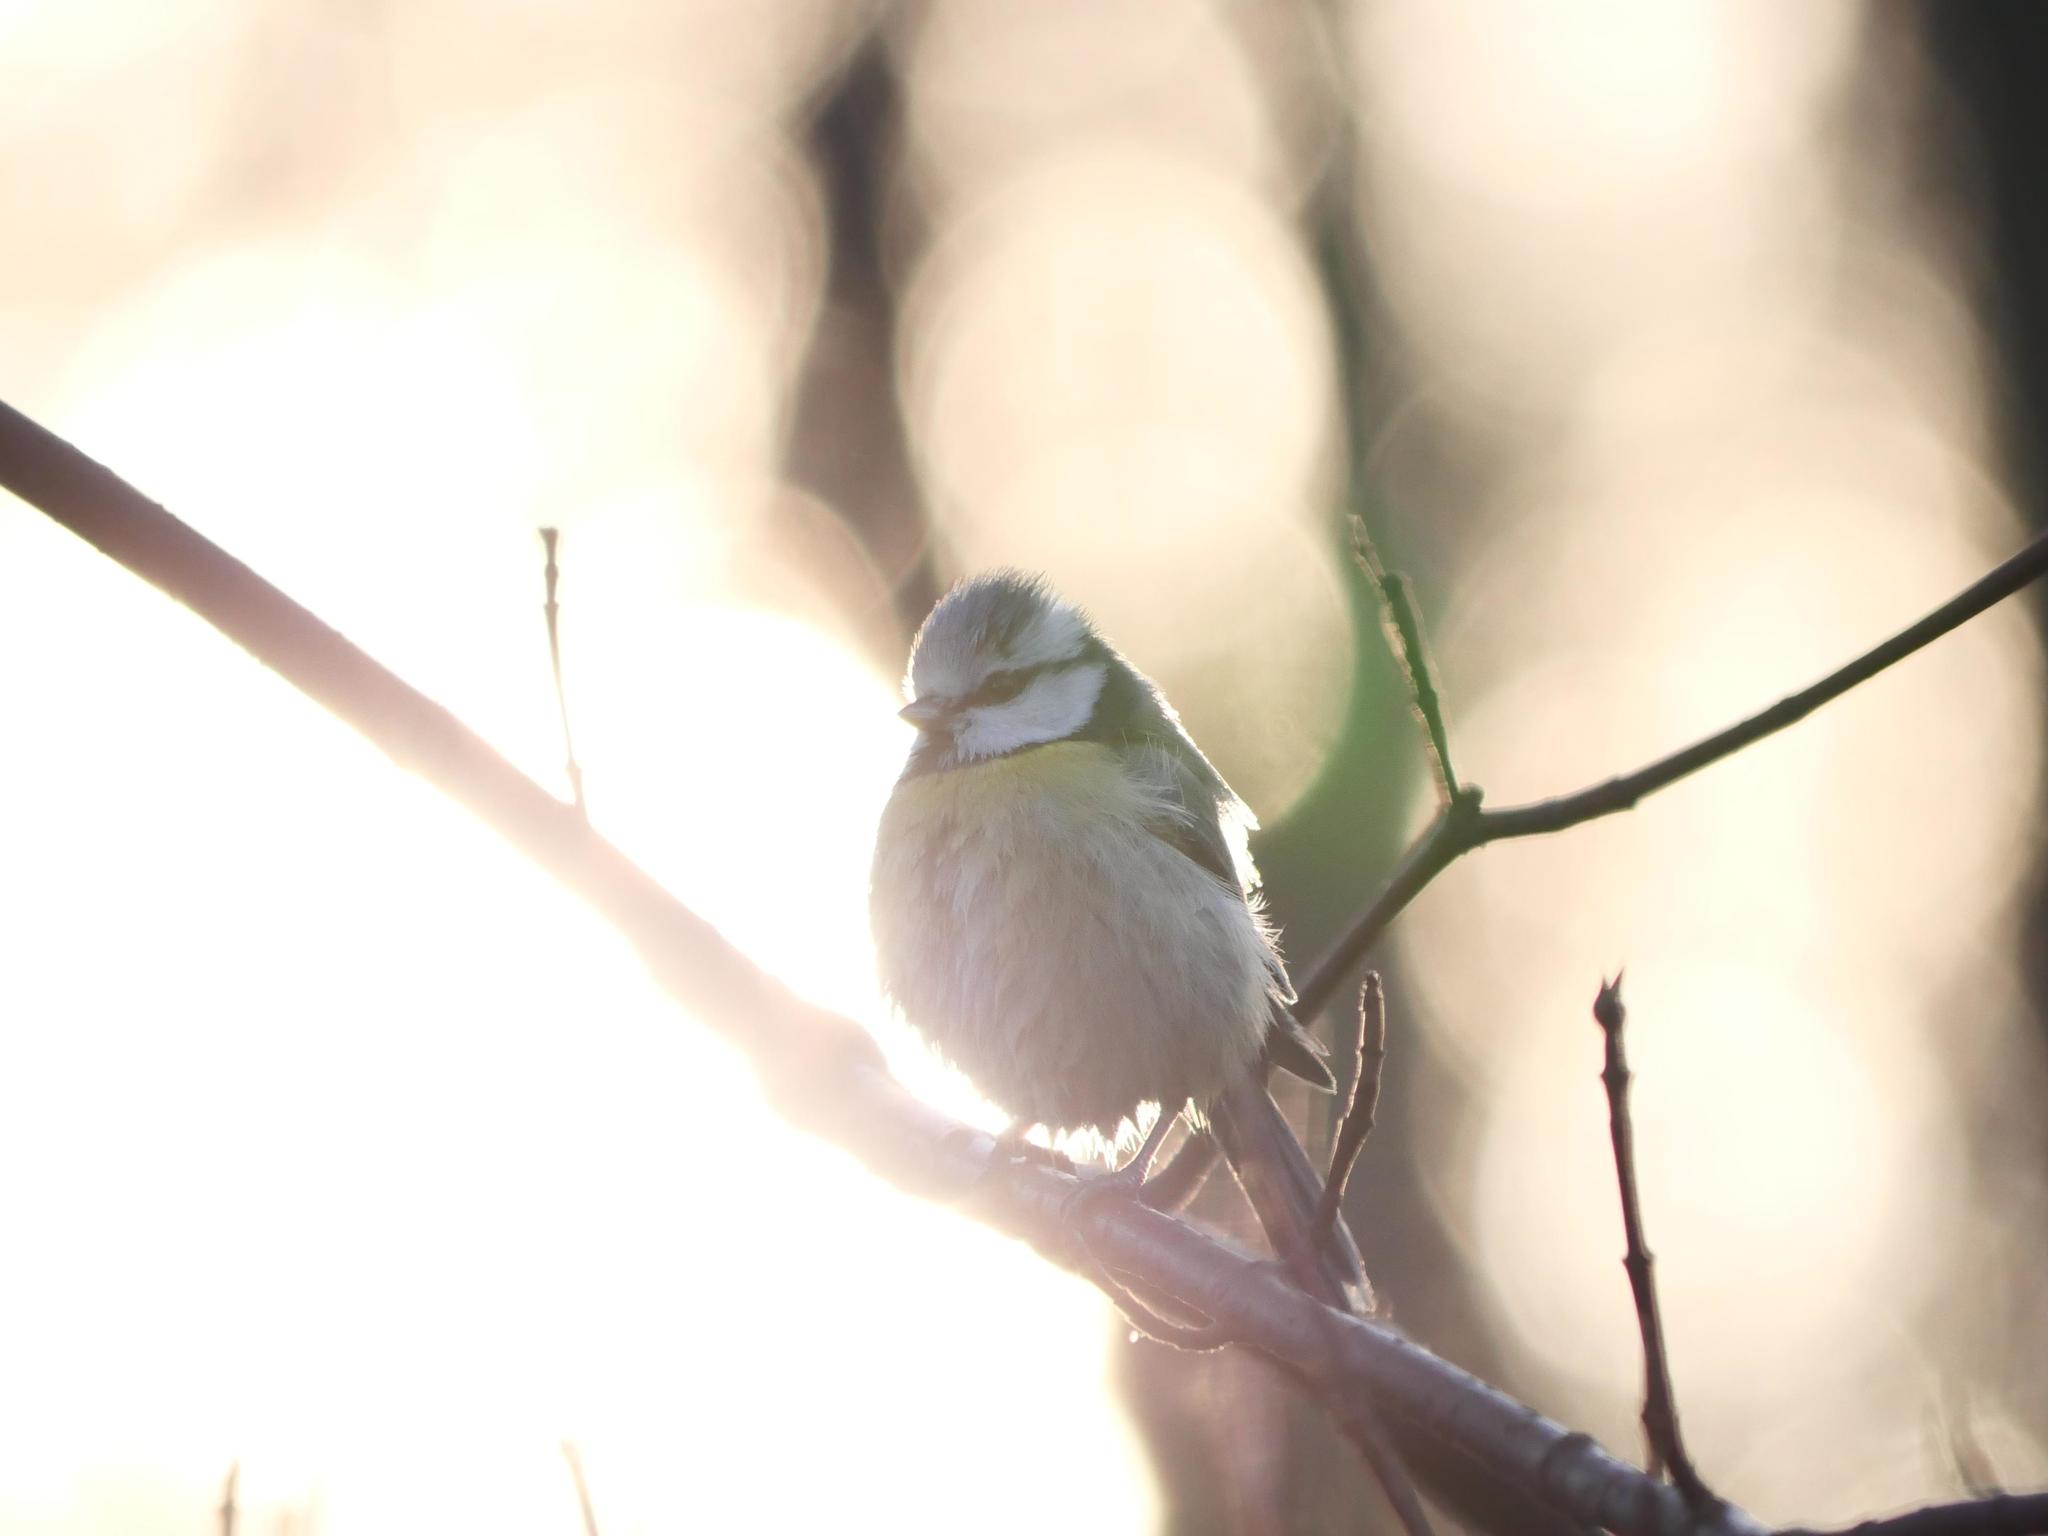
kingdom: Animalia
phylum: Chordata
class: Aves
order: Passeriformes
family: Paridae
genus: Cyanistes
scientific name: Cyanistes caeruleus
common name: Eurasian blue tit
